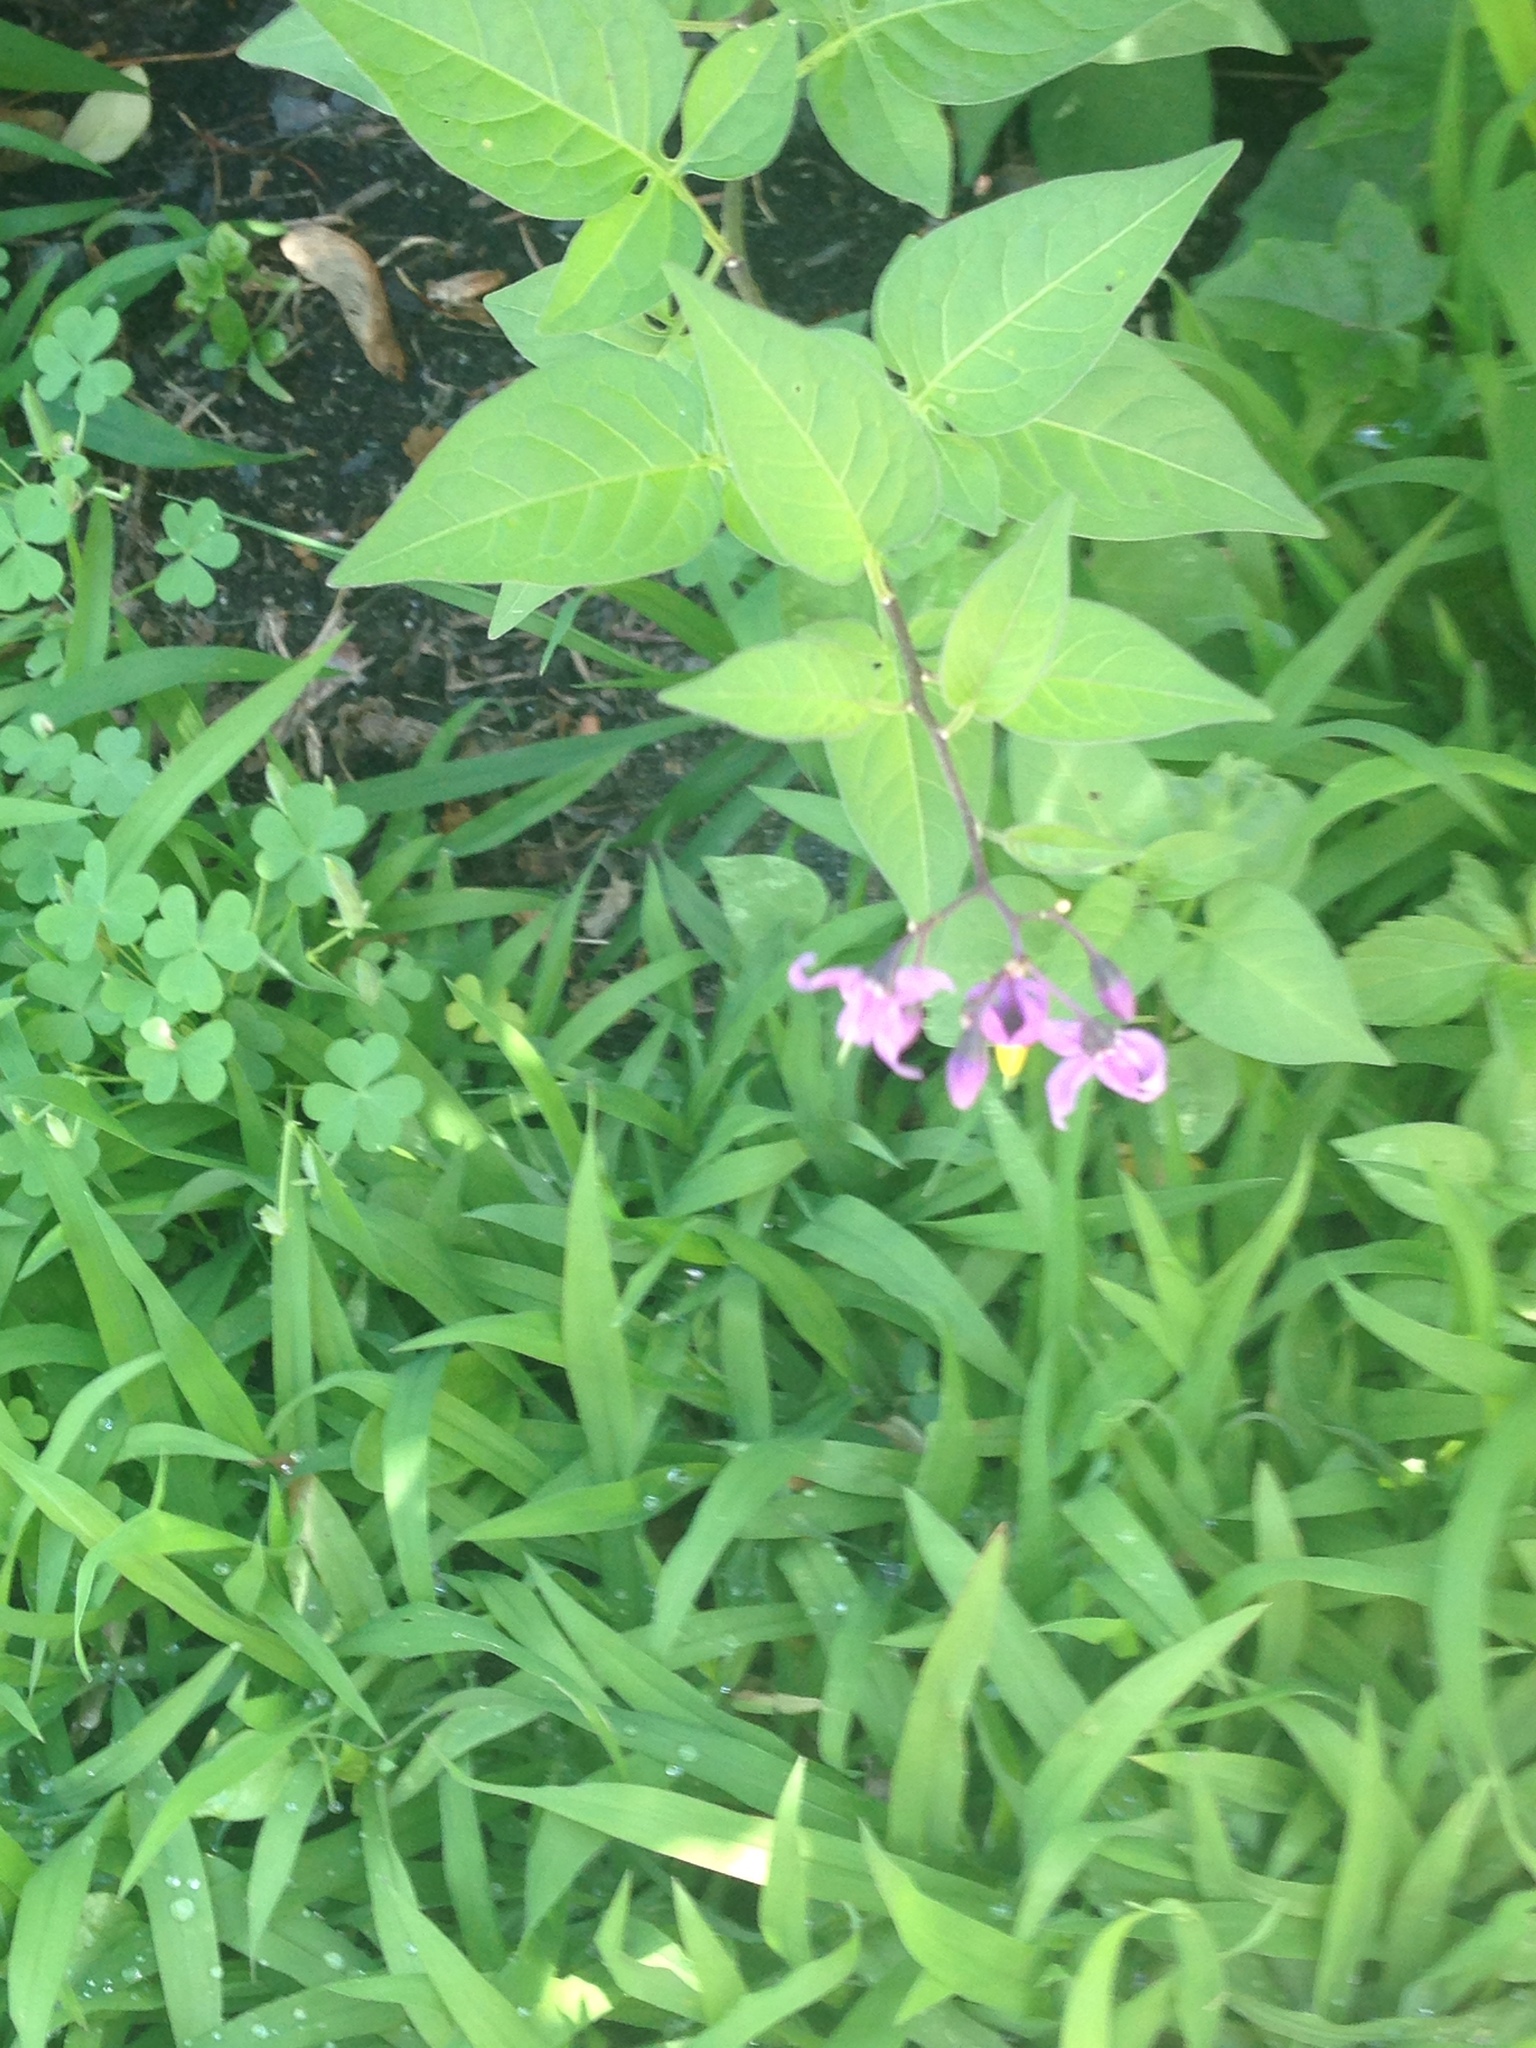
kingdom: Plantae
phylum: Tracheophyta
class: Magnoliopsida
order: Solanales
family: Solanaceae
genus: Solanum
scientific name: Solanum dulcamara
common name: Climbing nightshade
